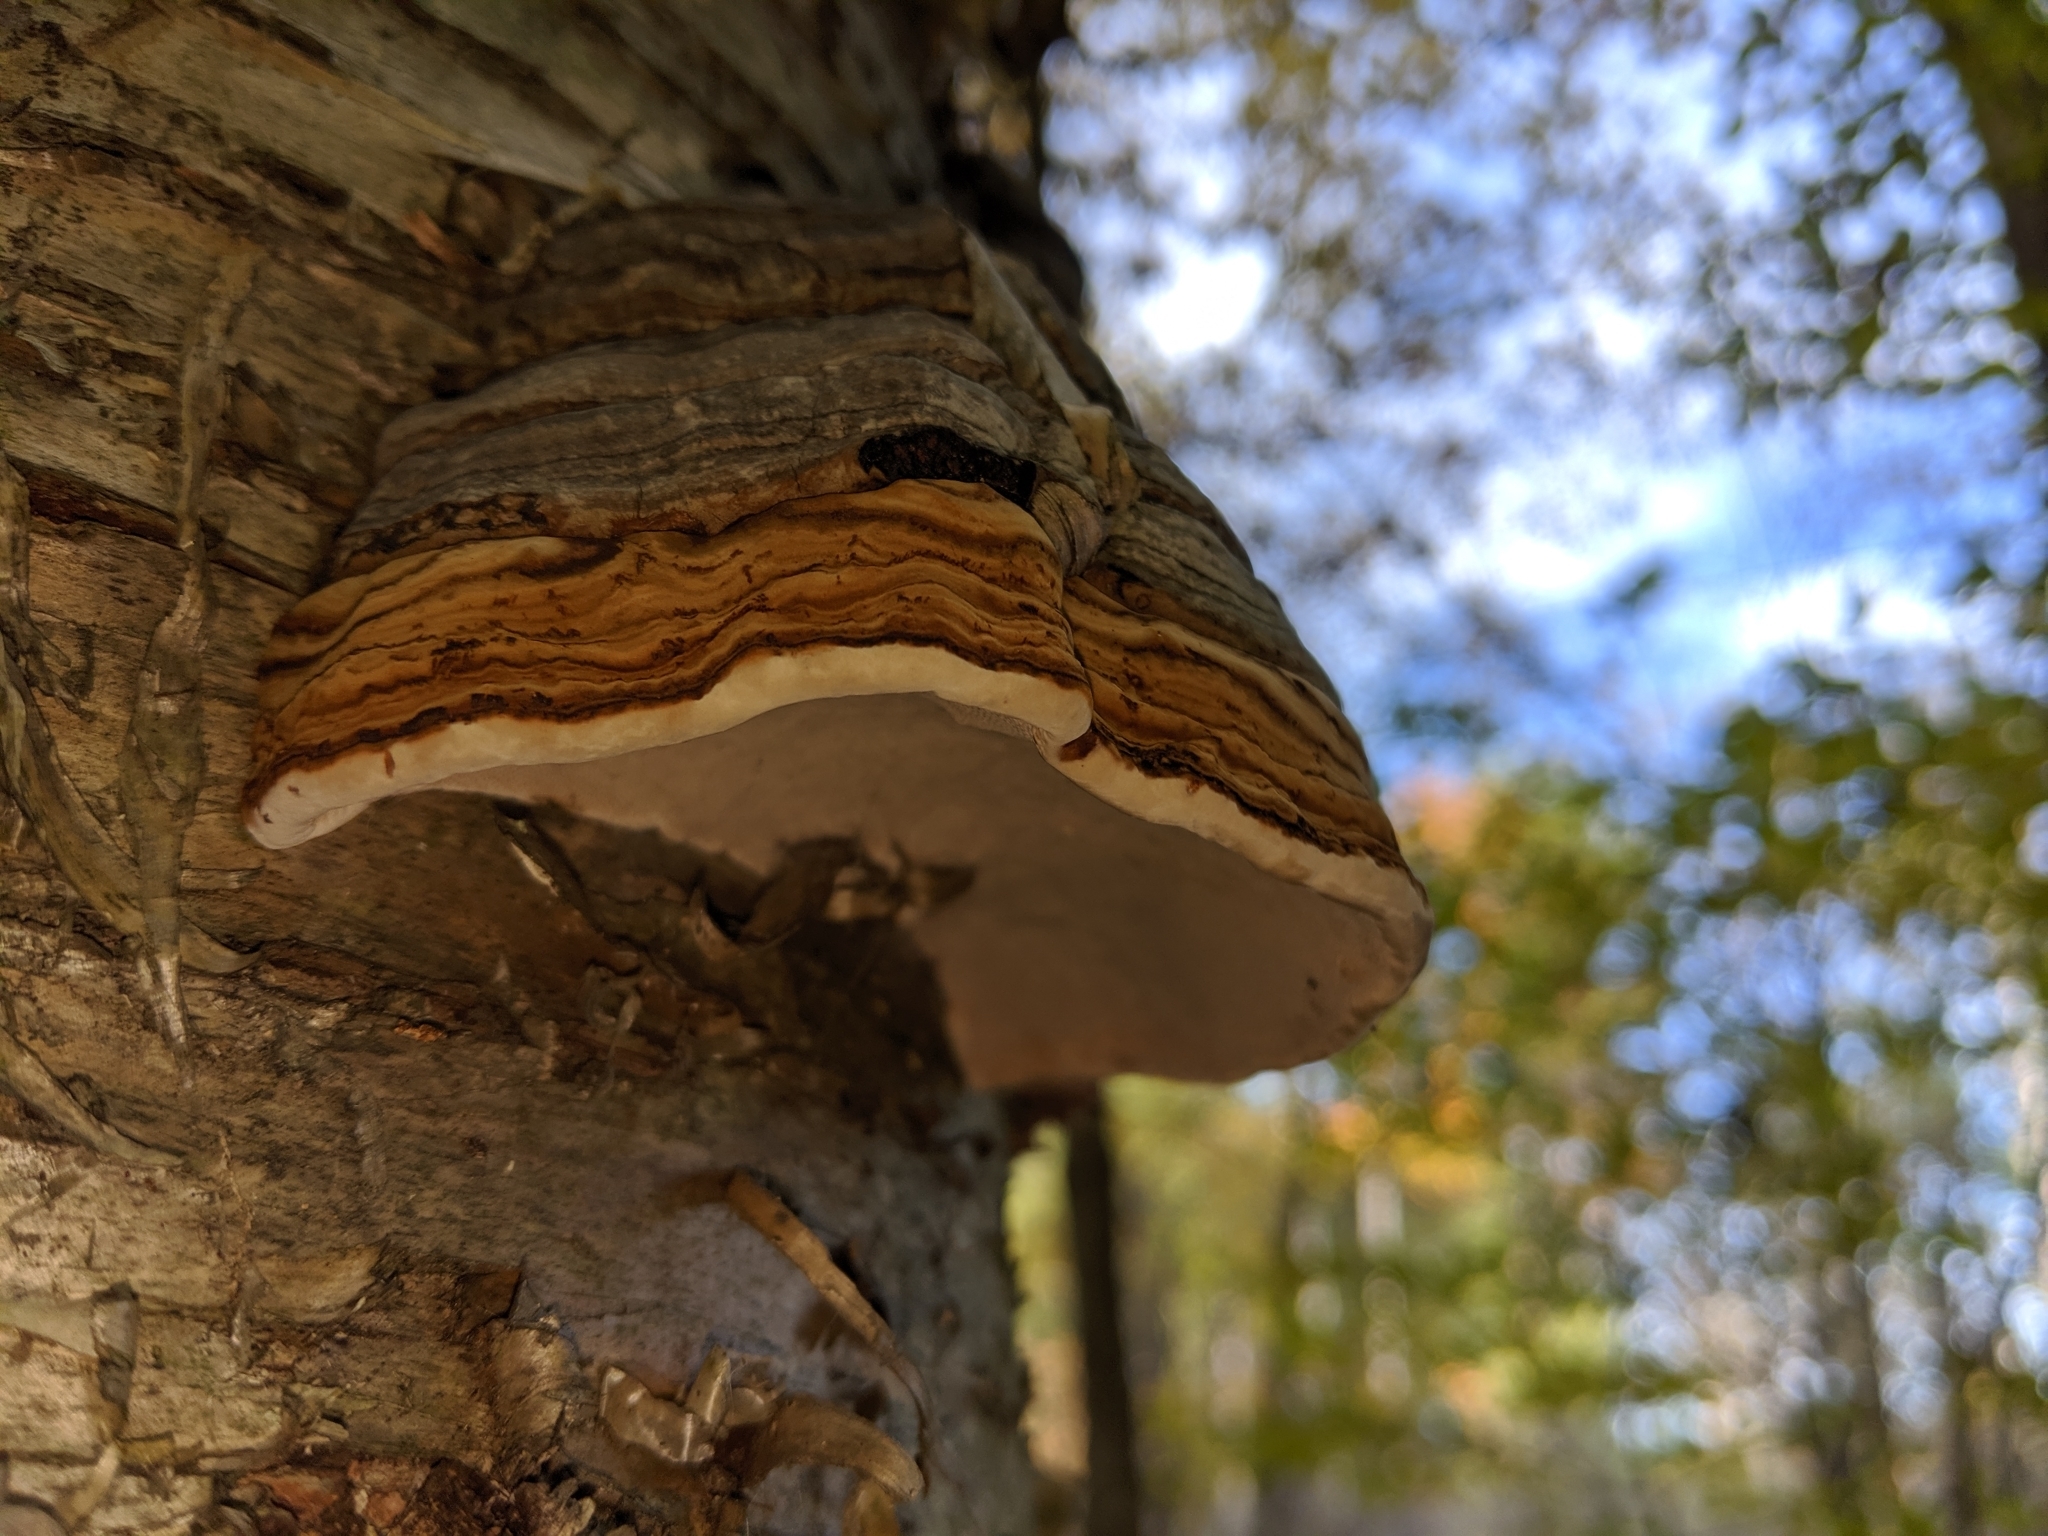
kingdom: Fungi
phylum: Basidiomycota
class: Agaricomycetes
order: Polyporales
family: Polyporaceae
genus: Fomes
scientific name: Fomes fomentarius
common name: Hoof fungus
